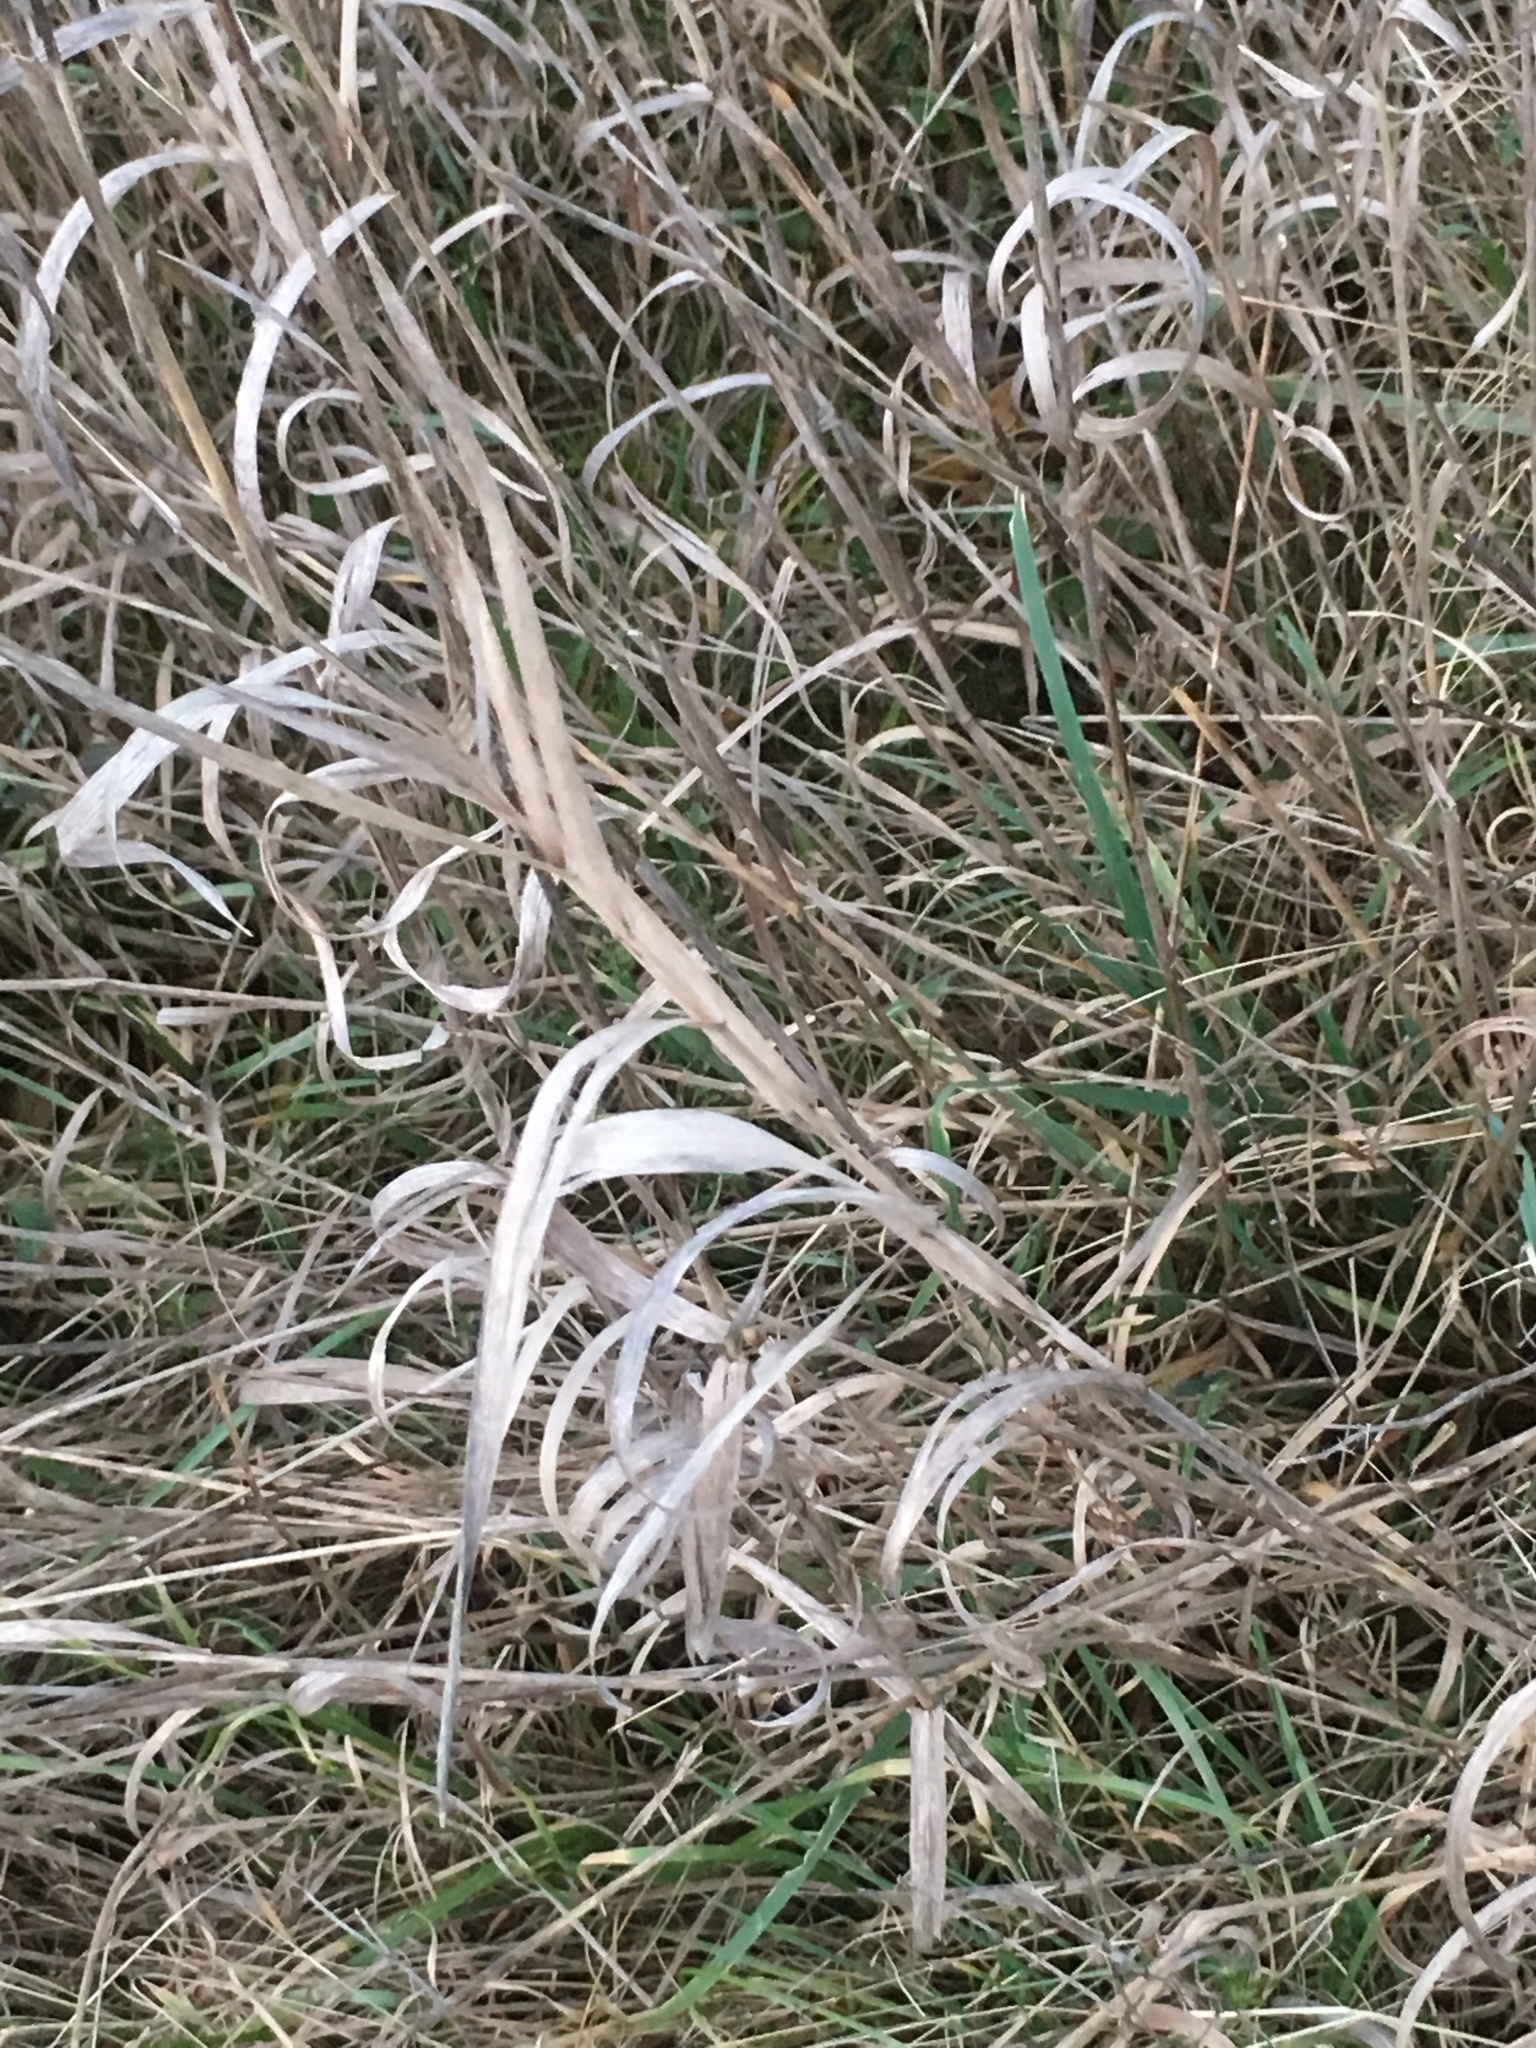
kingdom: Plantae
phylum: Tracheophyta
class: Liliopsida
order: Poales
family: Poaceae
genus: Phalaris
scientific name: Phalaris arundinacea
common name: Reed canary-grass
